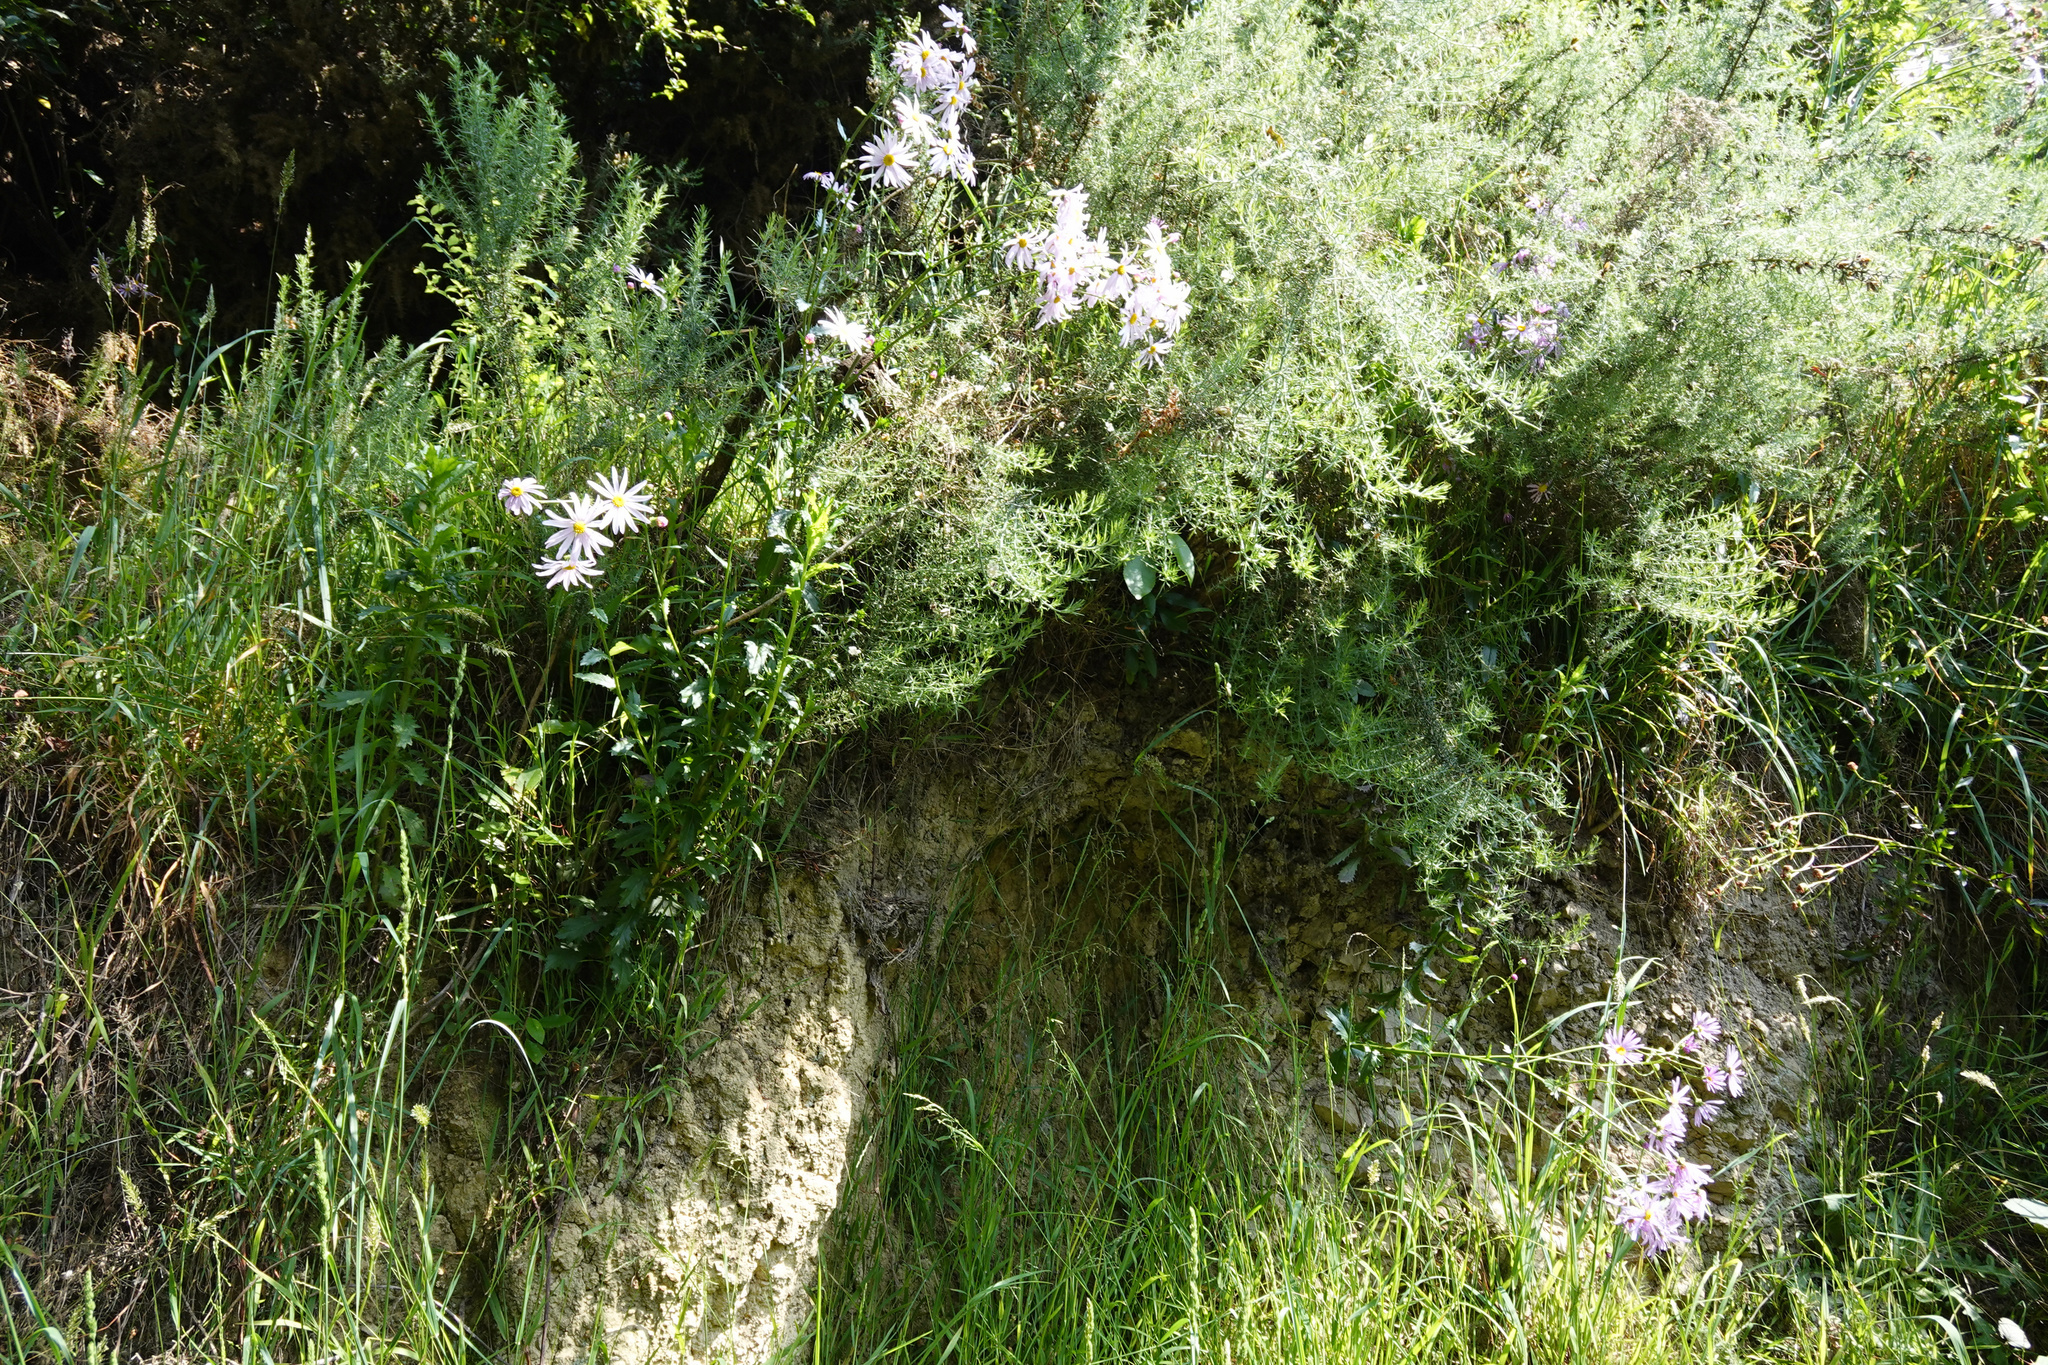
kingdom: Plantae
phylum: Tracheophyta
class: Magnoliopsida
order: Asterales
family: Asteraceae
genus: Senecio
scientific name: Senecio glastifolius
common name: Woad-leaved ragwort
